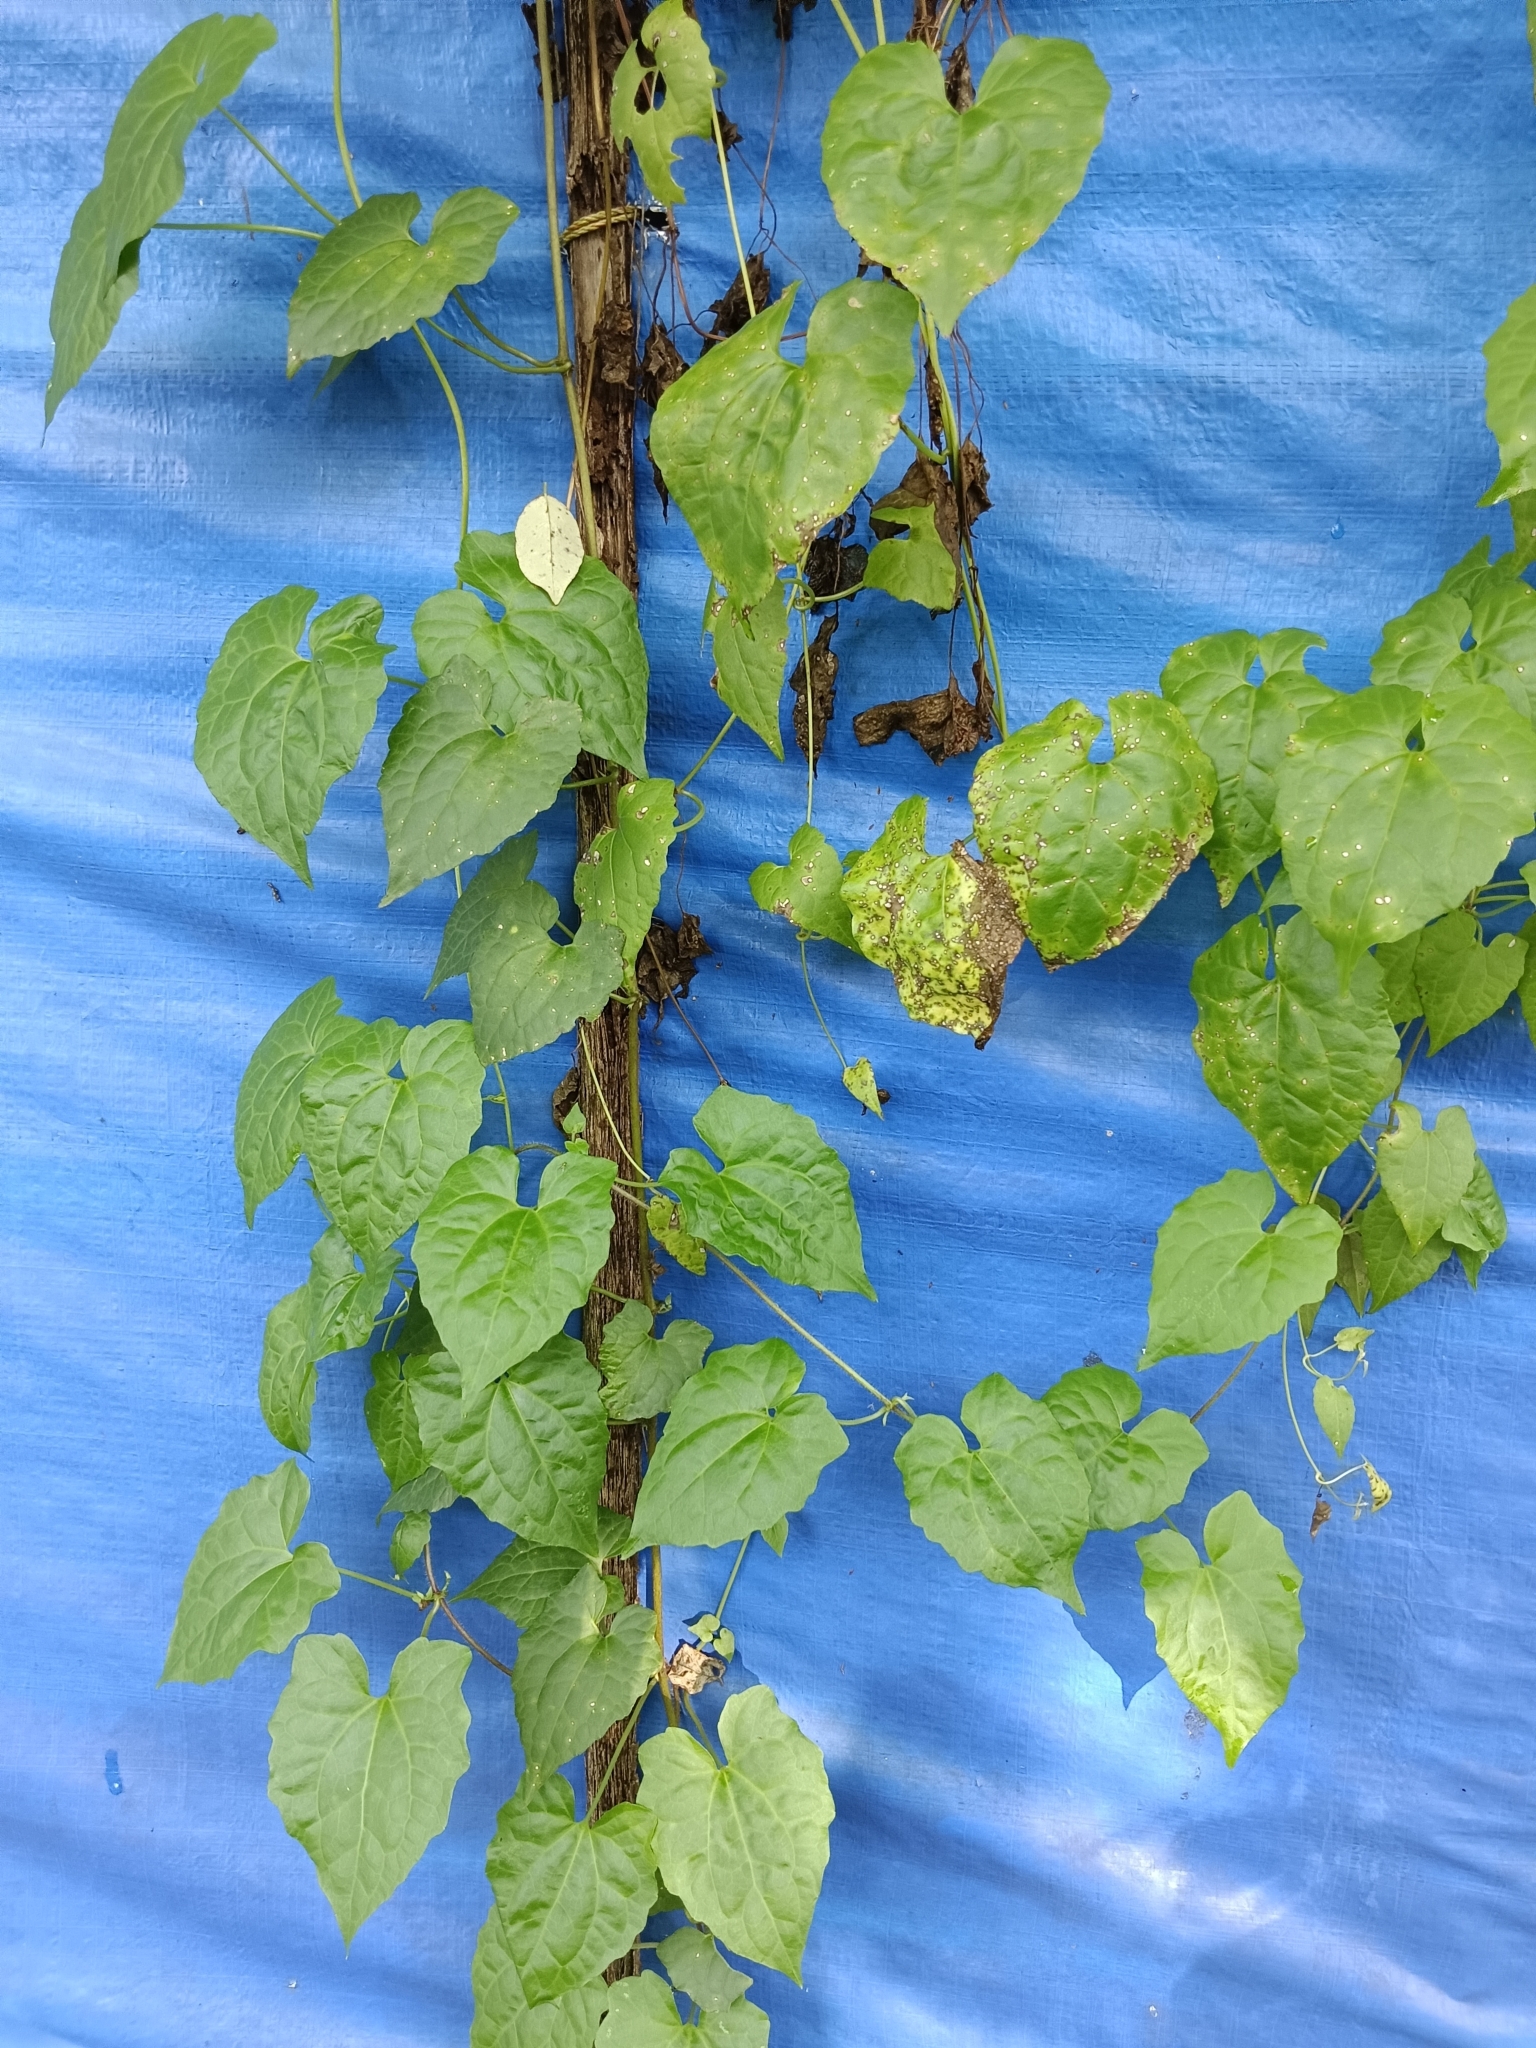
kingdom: Plantae
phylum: Tracheophyta
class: Magnoliopsida
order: Asterales
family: Asteraceae
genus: Mikania
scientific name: Mikania micrantha
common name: Mile-a-minute
